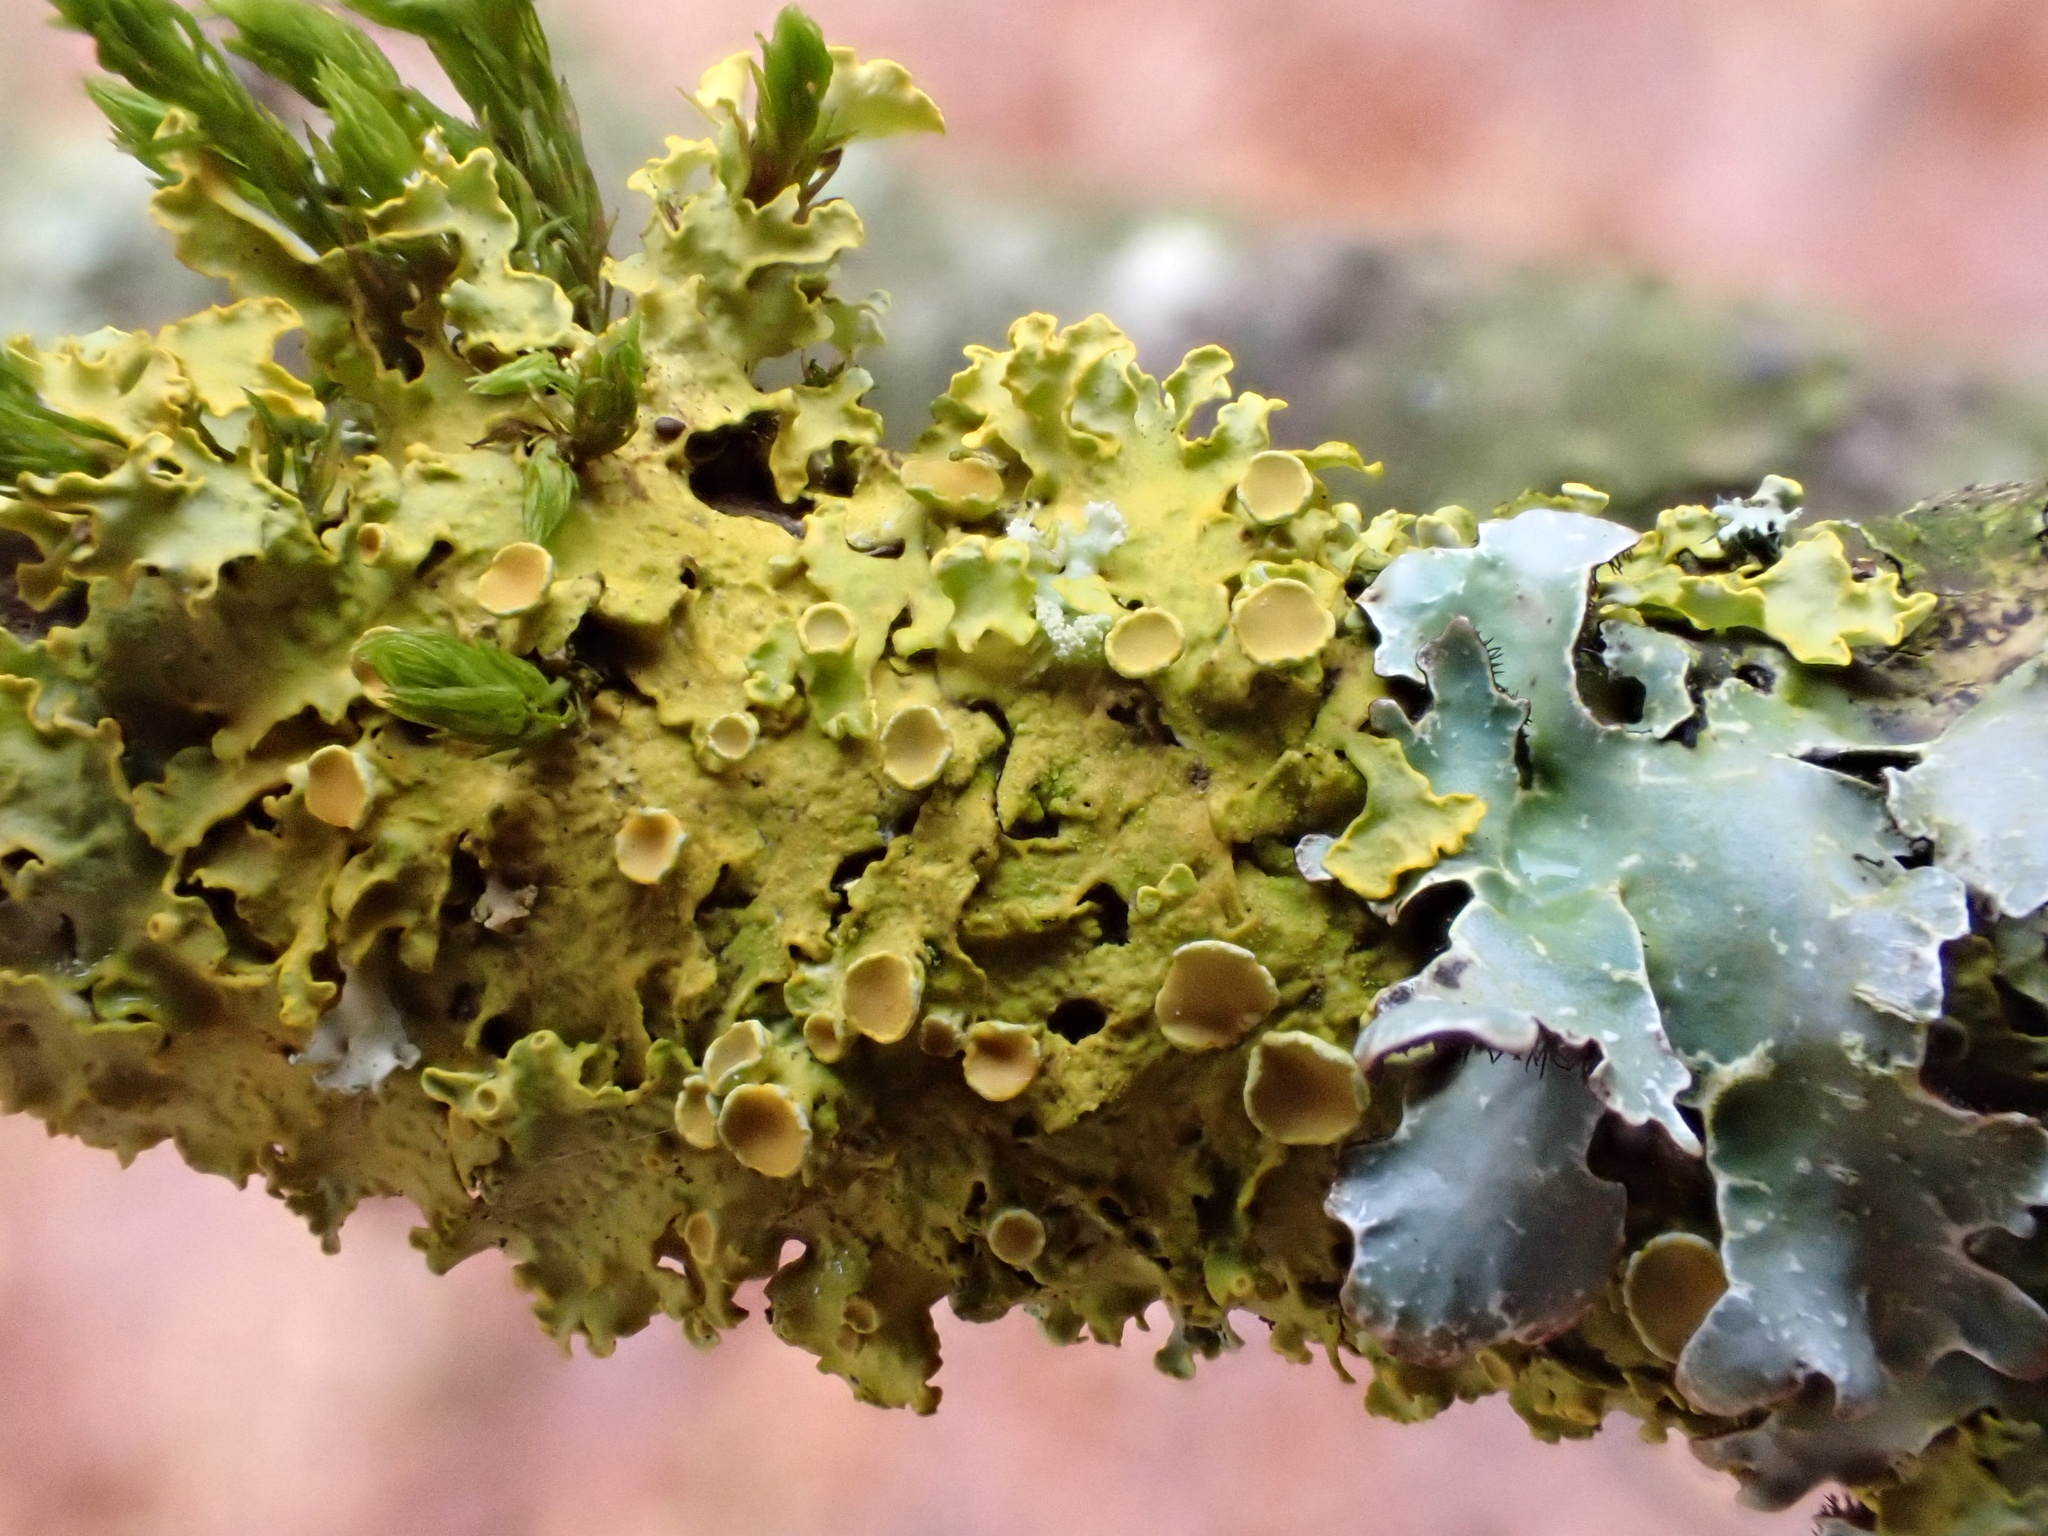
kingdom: Fungi
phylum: Ascomycota
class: Lecanoromycetes
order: Teloschistales
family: Teloschistaceae
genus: Xanthoria
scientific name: Xanthoria parietina
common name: Common orange lichen
